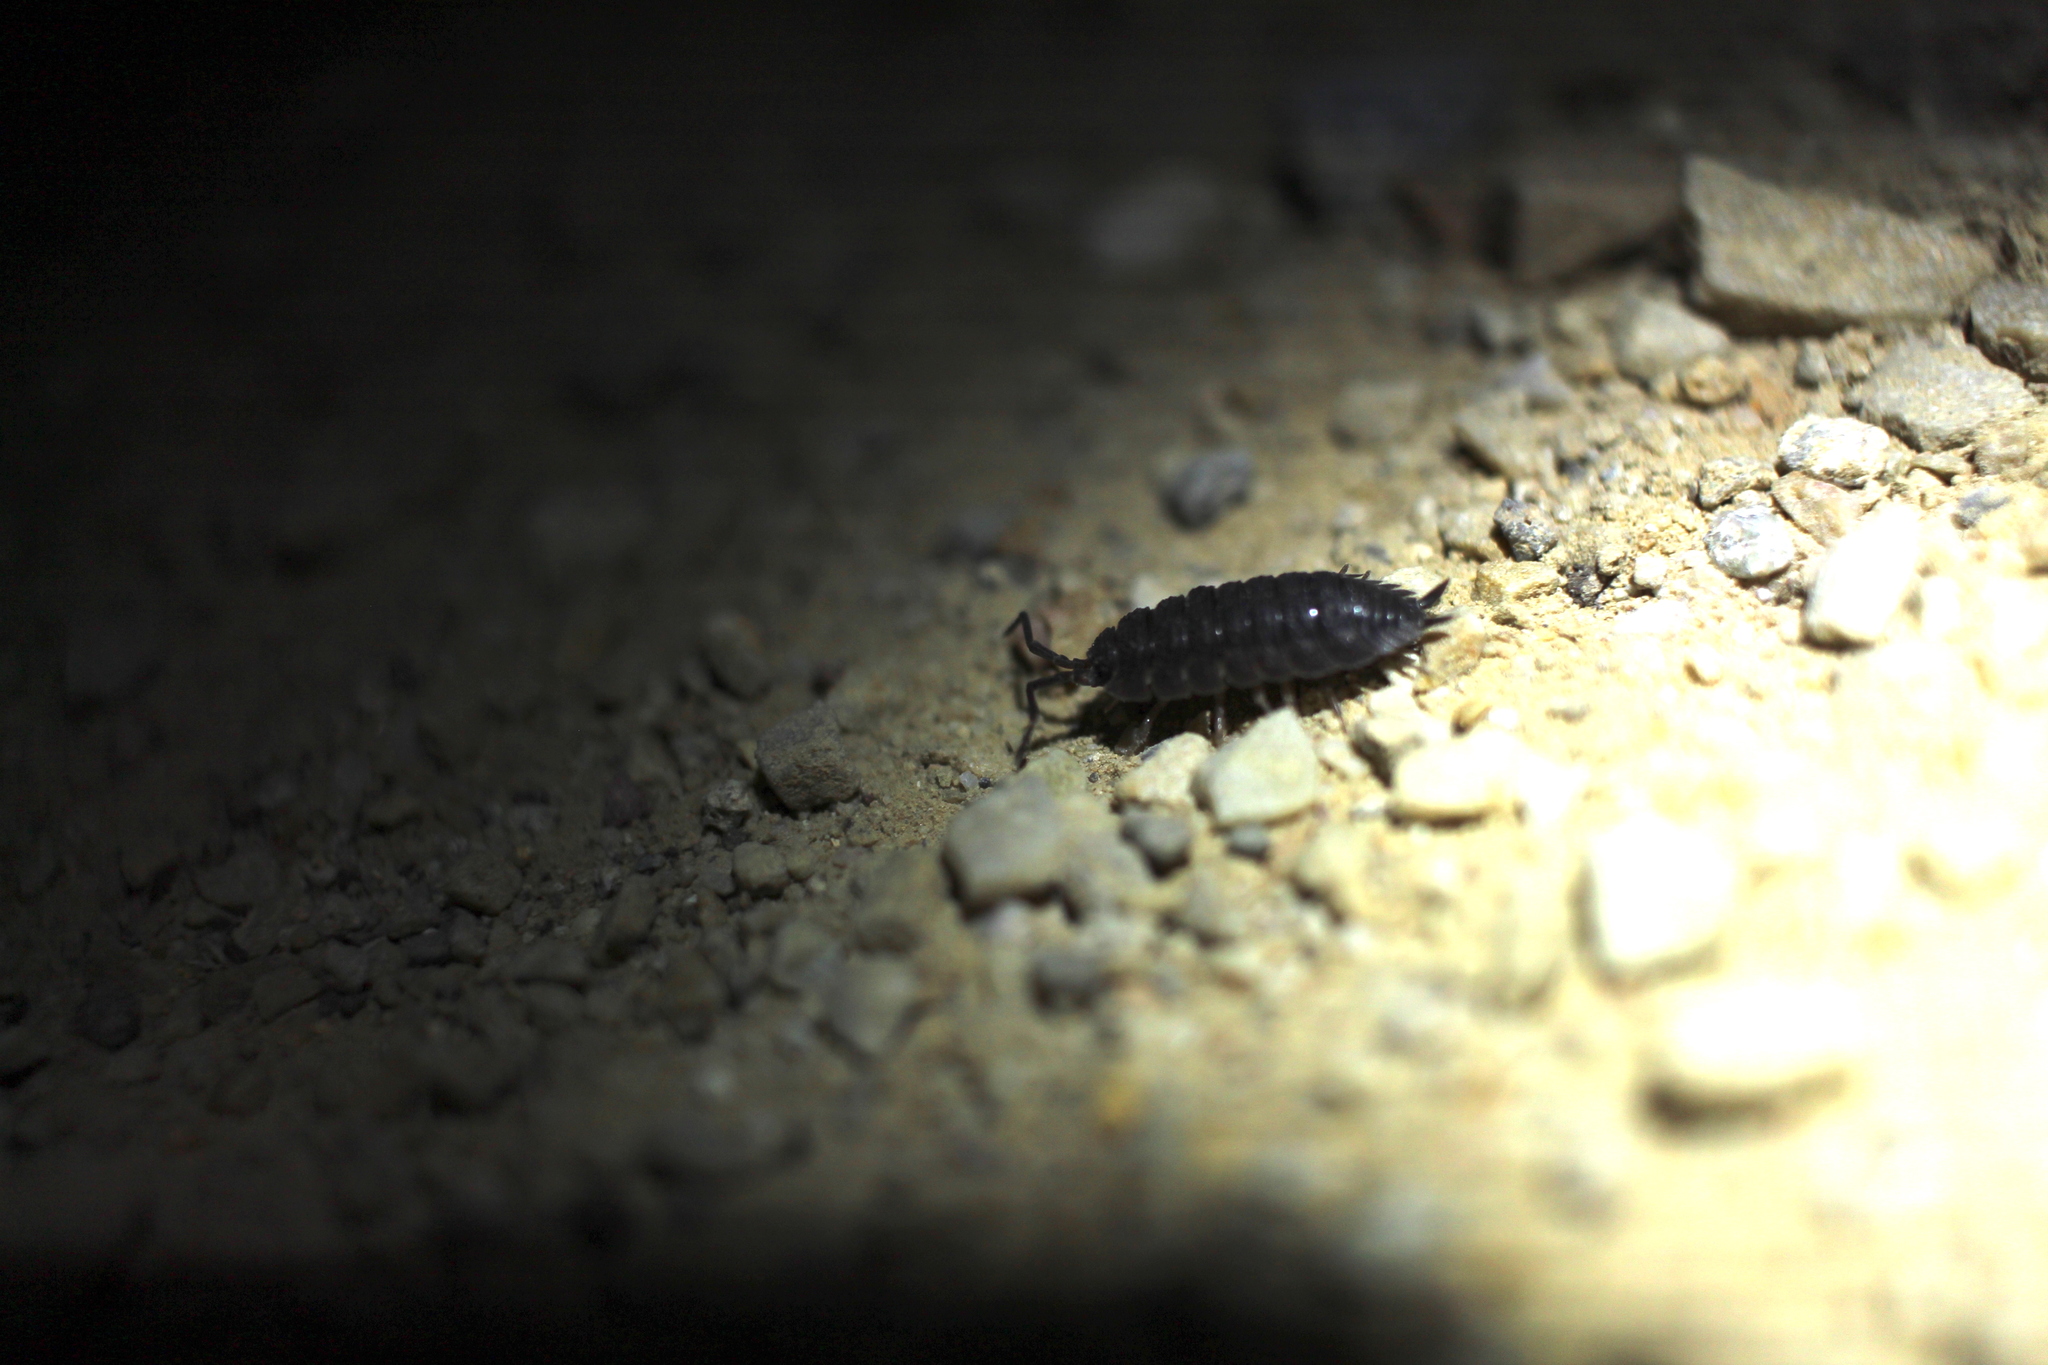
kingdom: Animalia
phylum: Arthropoda
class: Malacostraca
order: Isopoda
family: Porcellionidae
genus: Porcellio
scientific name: Porcellio scaber
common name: Common rough woodlouse
